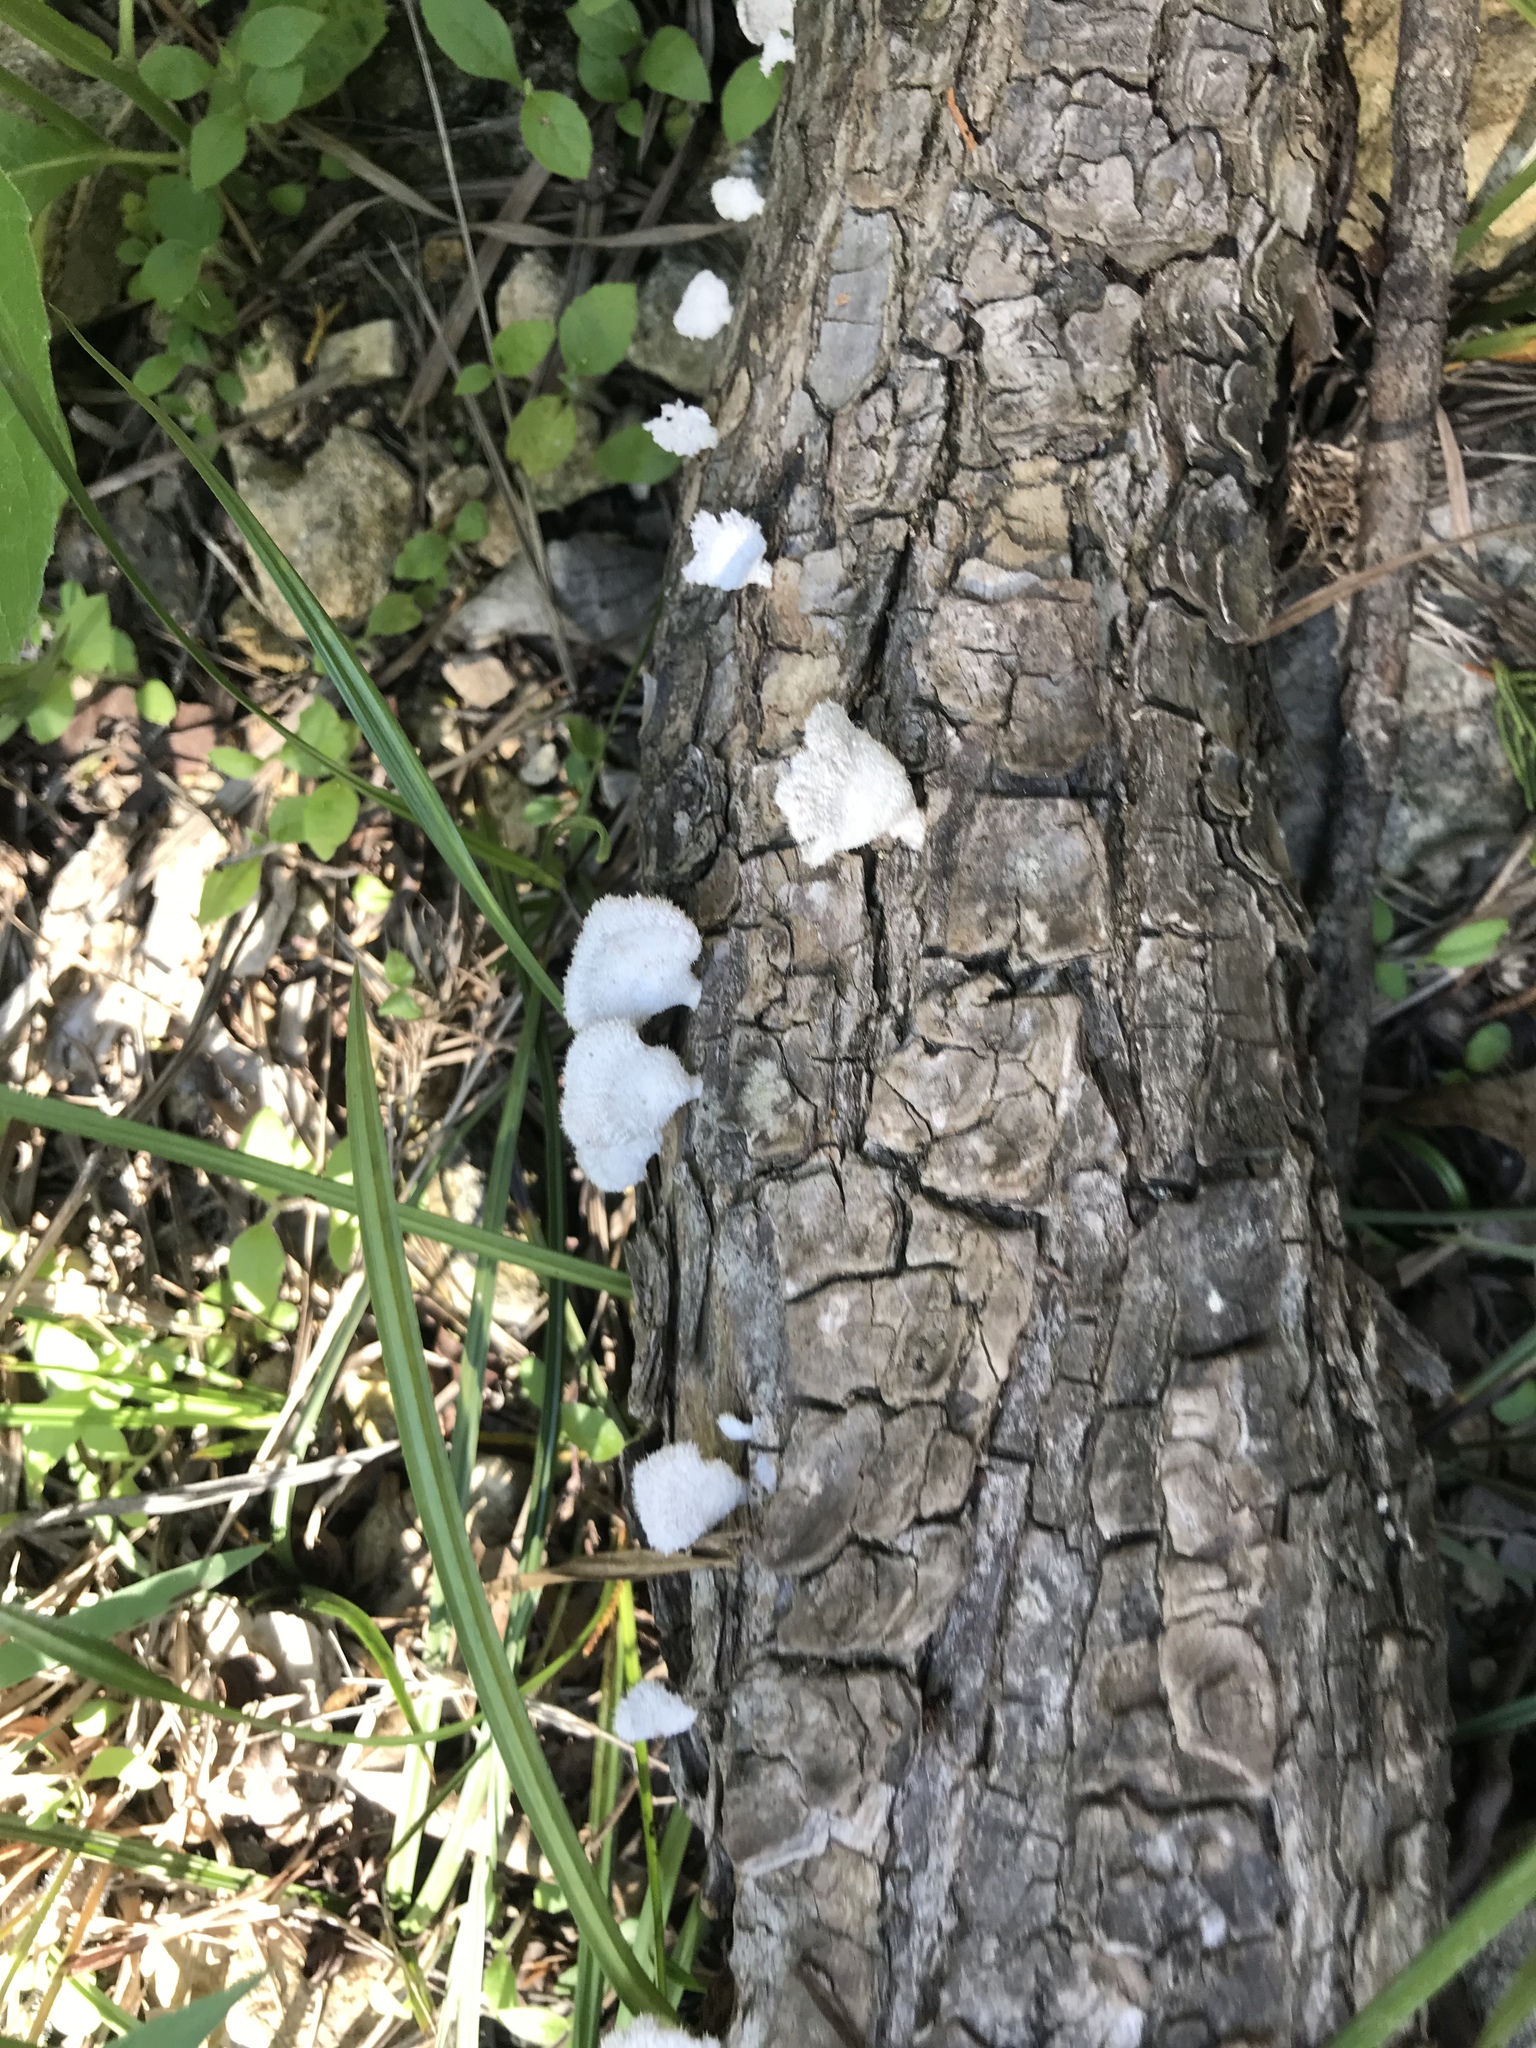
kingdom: Fungi
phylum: Basidiomycota
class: Agaricomycetes
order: Agaricales
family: Schizophyllaceae
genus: Schizophyllum
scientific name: Schizophyllum commune
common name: Common porecrust
